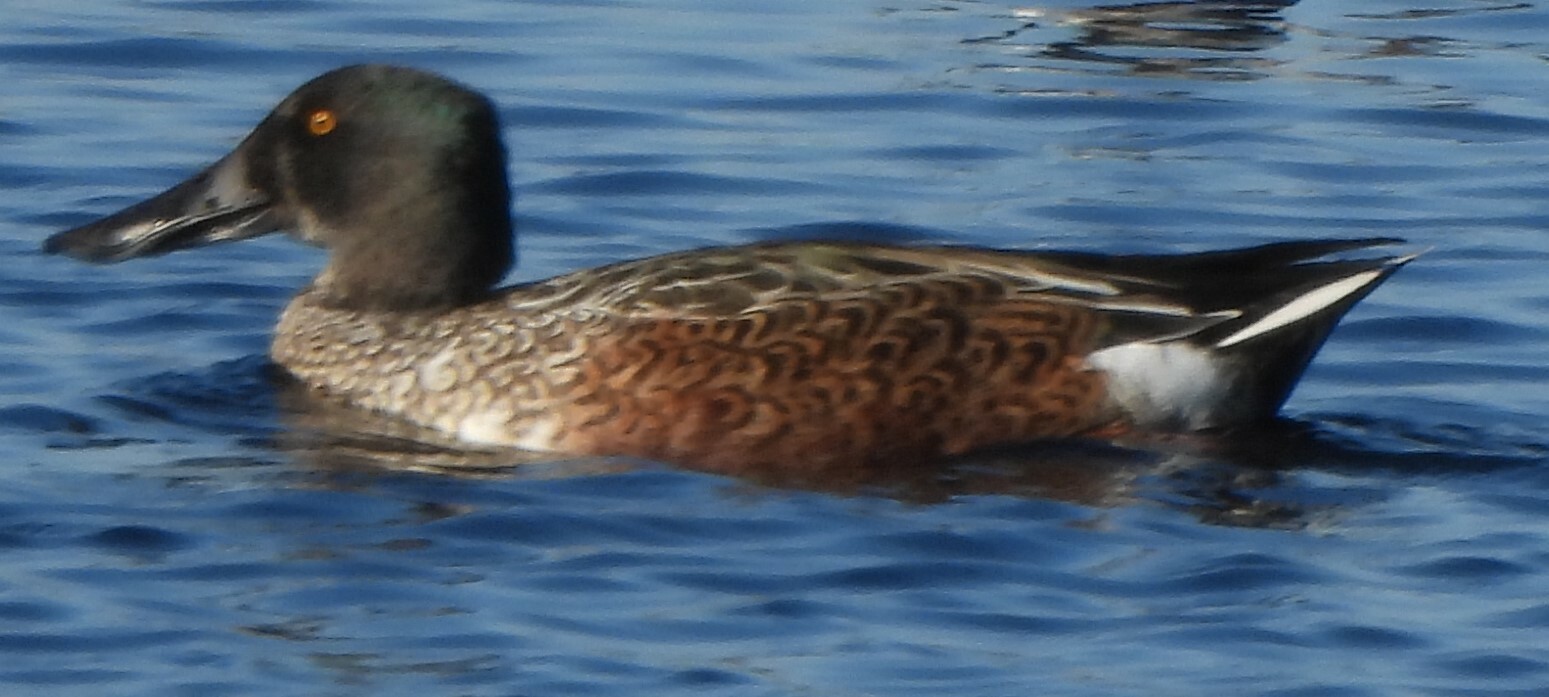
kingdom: Animalia
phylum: Chordata
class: Aves
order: Anseriformes
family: Anatidae
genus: Spatula
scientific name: Spatula clypeata
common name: Northern shoveler
